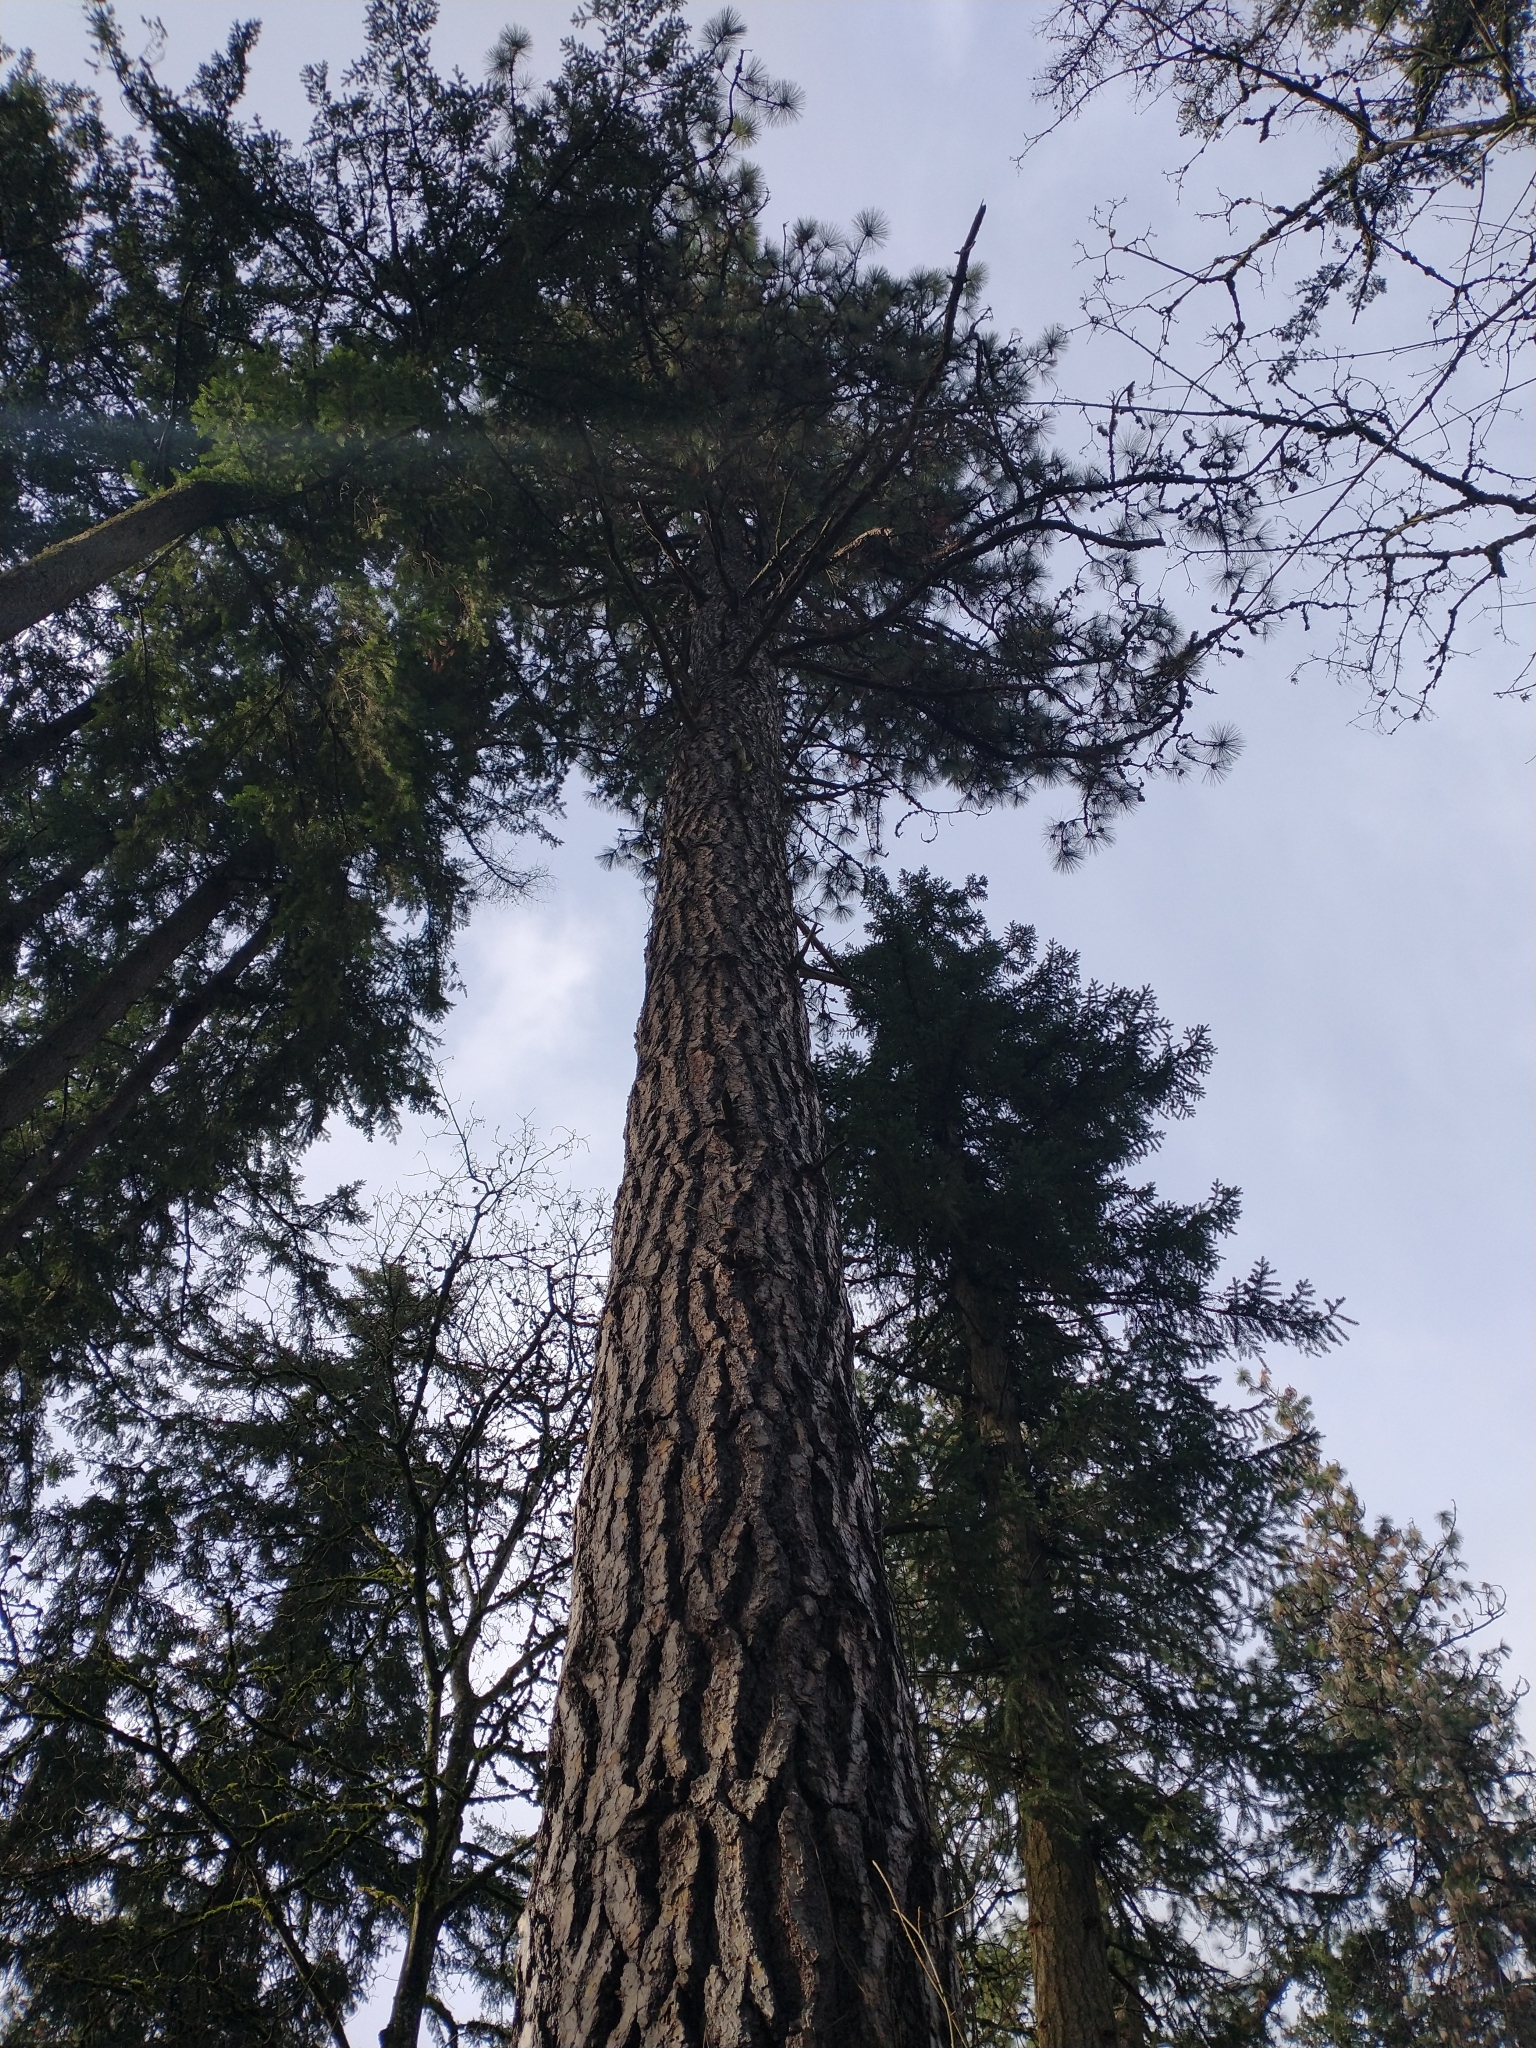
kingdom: Plantae
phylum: Tracheophyta
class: Pinopsida
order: Pinales
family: Pinaceae
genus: Pinus
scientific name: Pinus ponderosa
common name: Western yellow-pine
